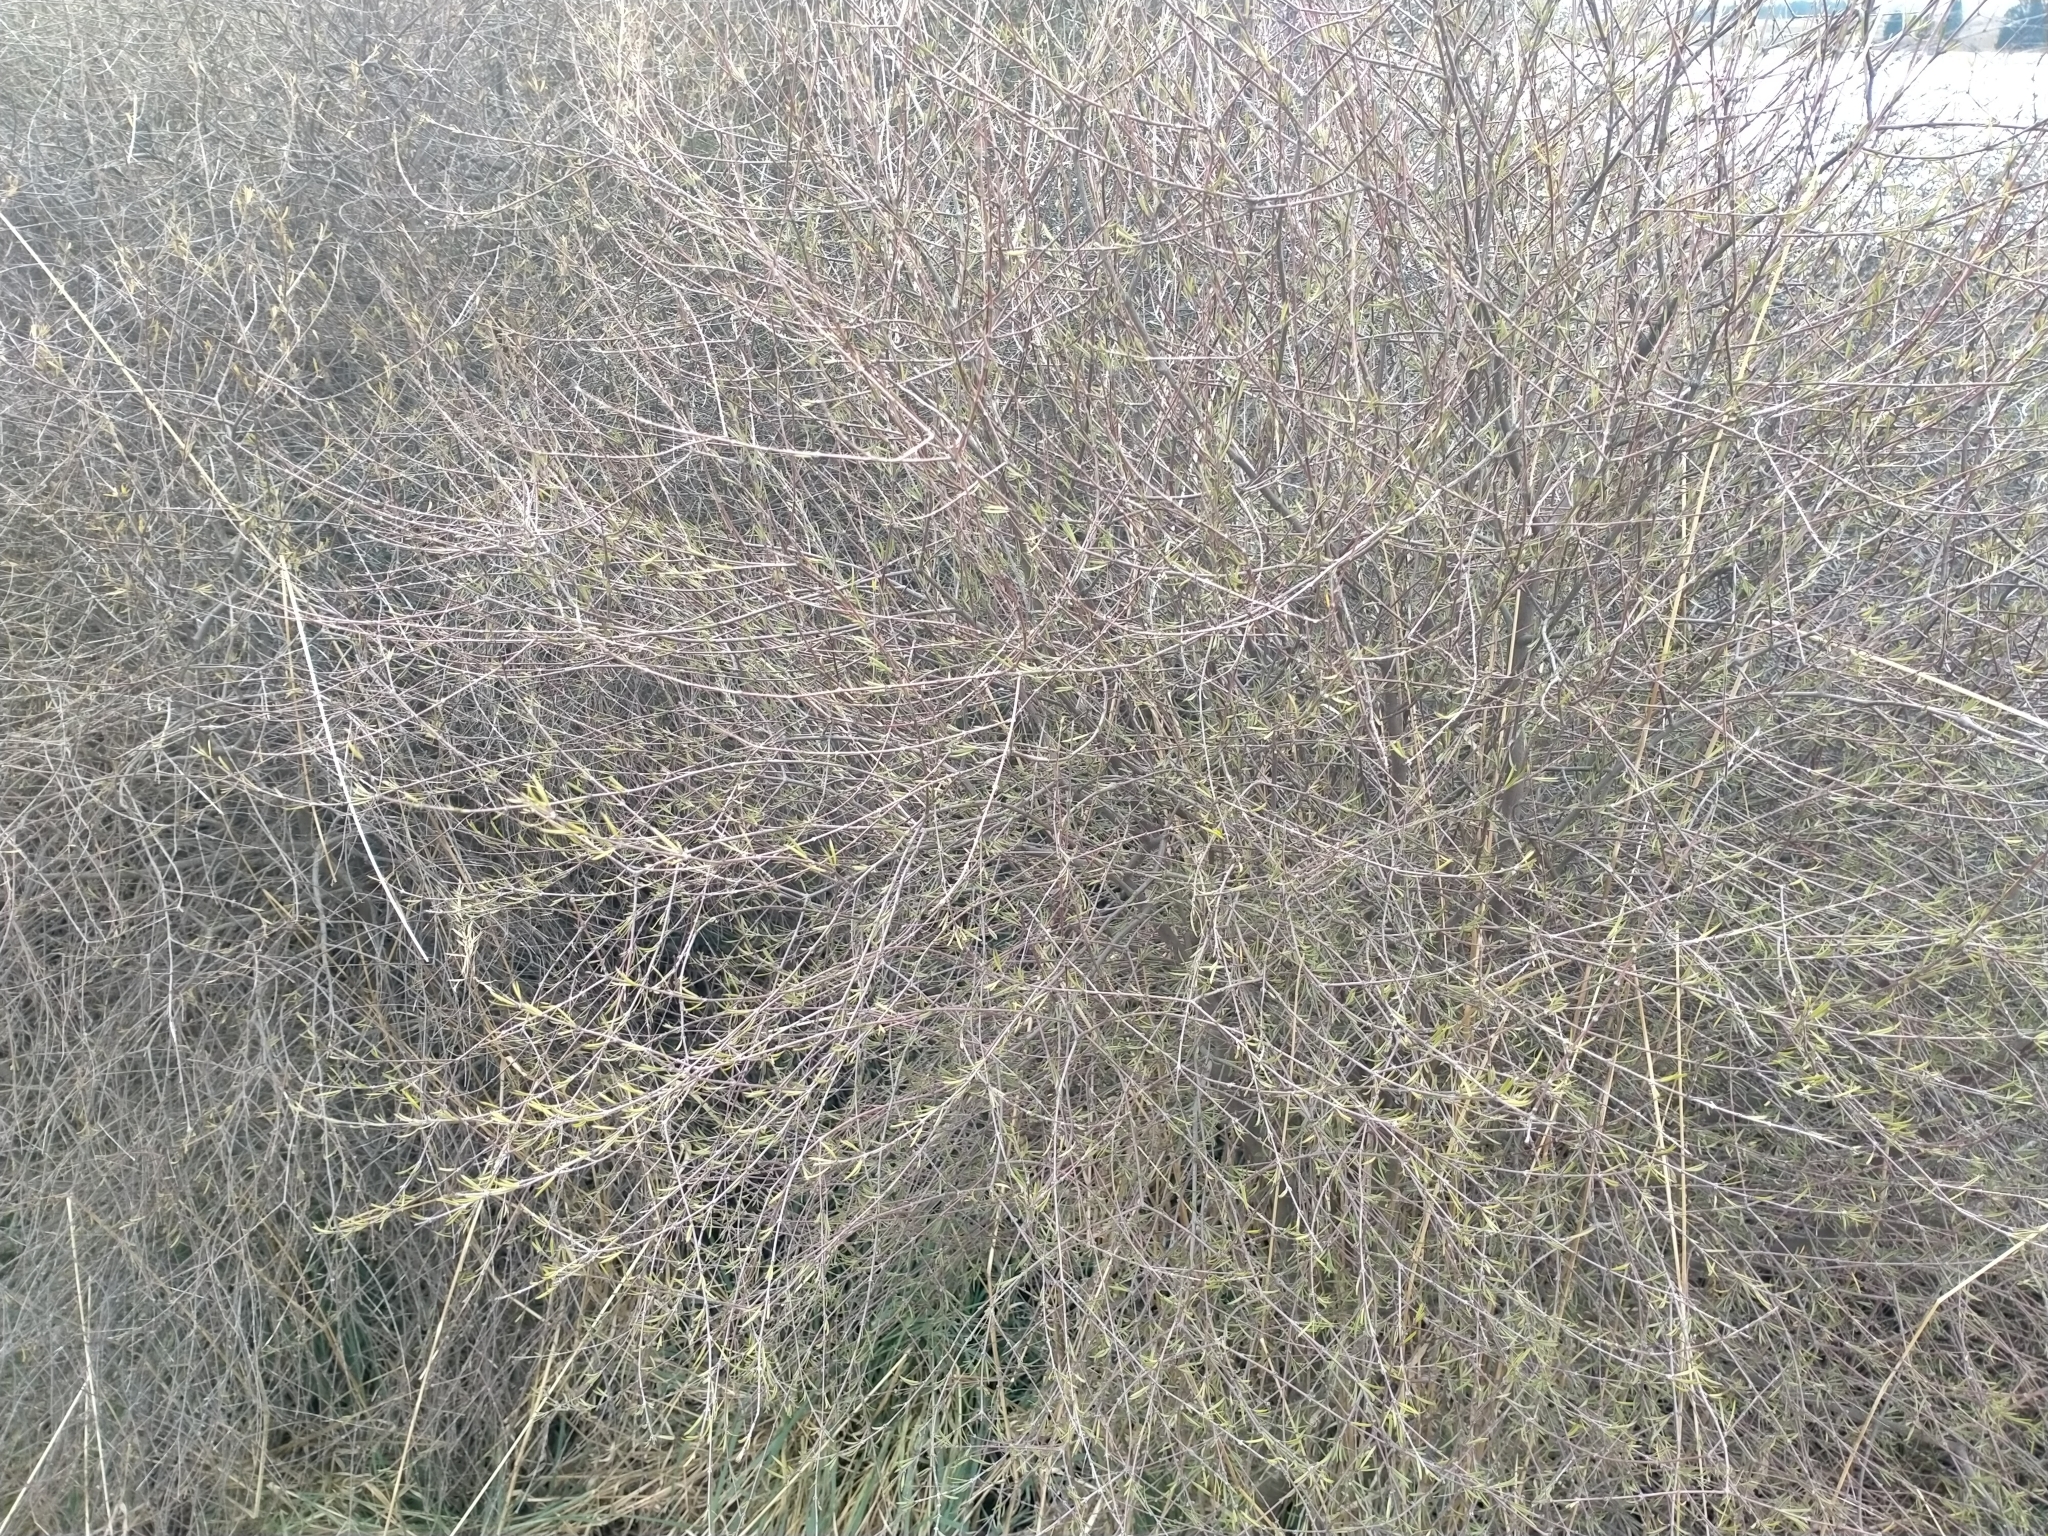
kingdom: Plantae
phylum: Tracheophyta
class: Magnoliopsida
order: Gentianales
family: Rubiaceae
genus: Coprosma
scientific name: Coprosma intertexta
